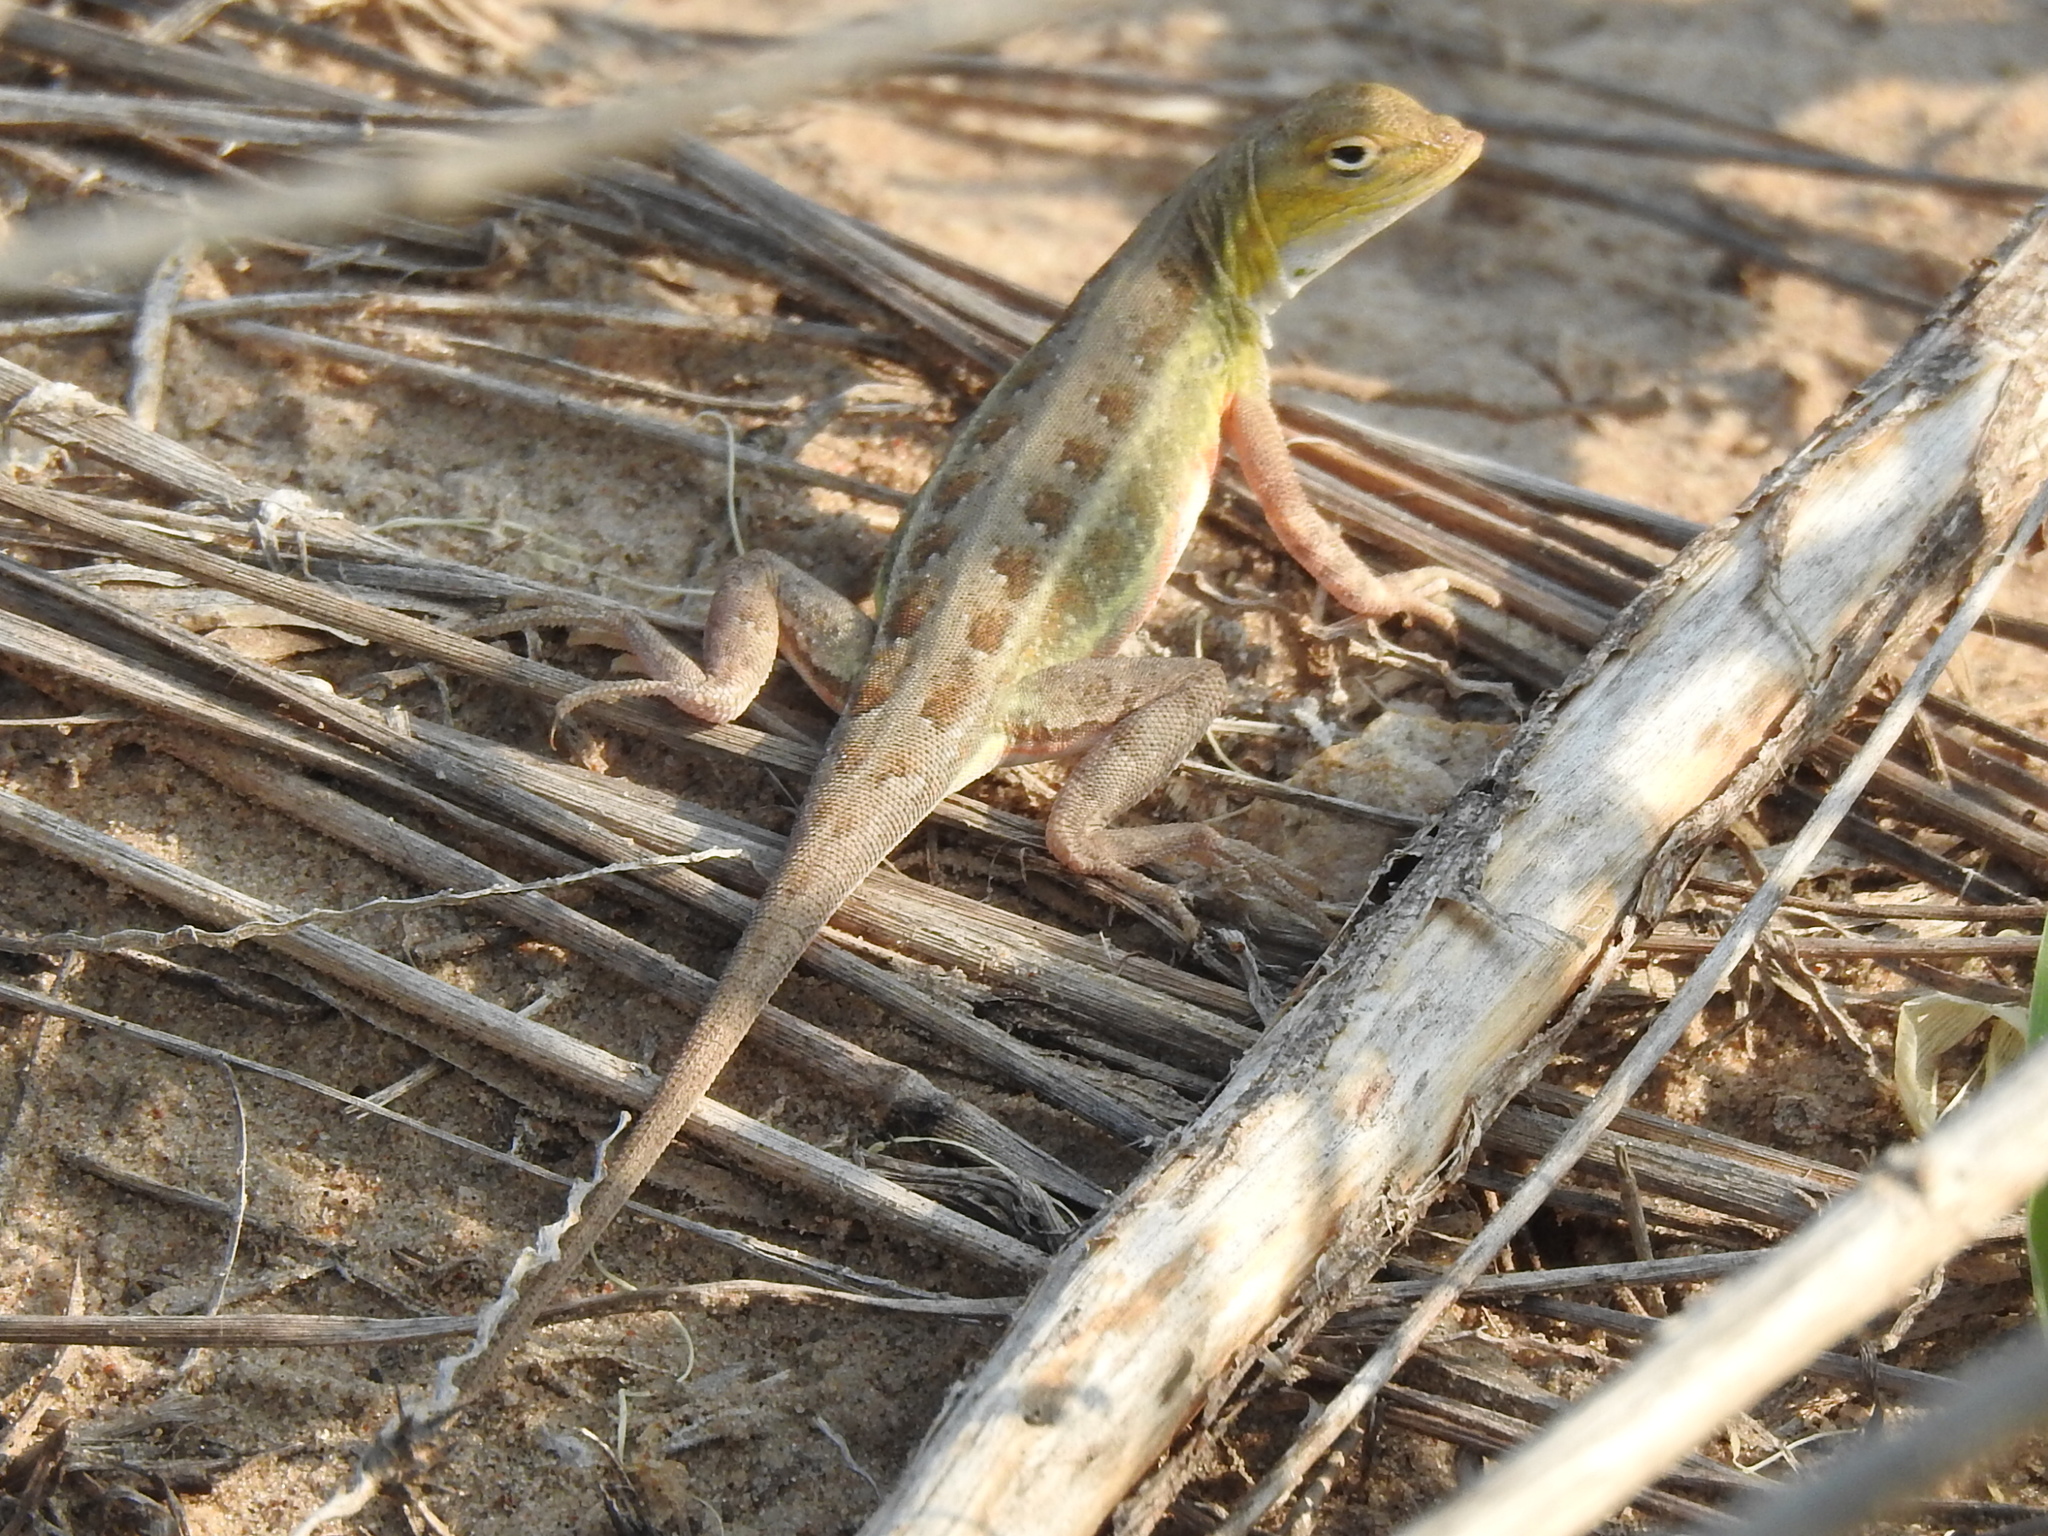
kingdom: Animalia
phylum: Chordata
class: Squamata
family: Phrynosomatidae
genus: Holbrookia
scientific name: Holbrookia propinqua
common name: Keeled earless lizard
